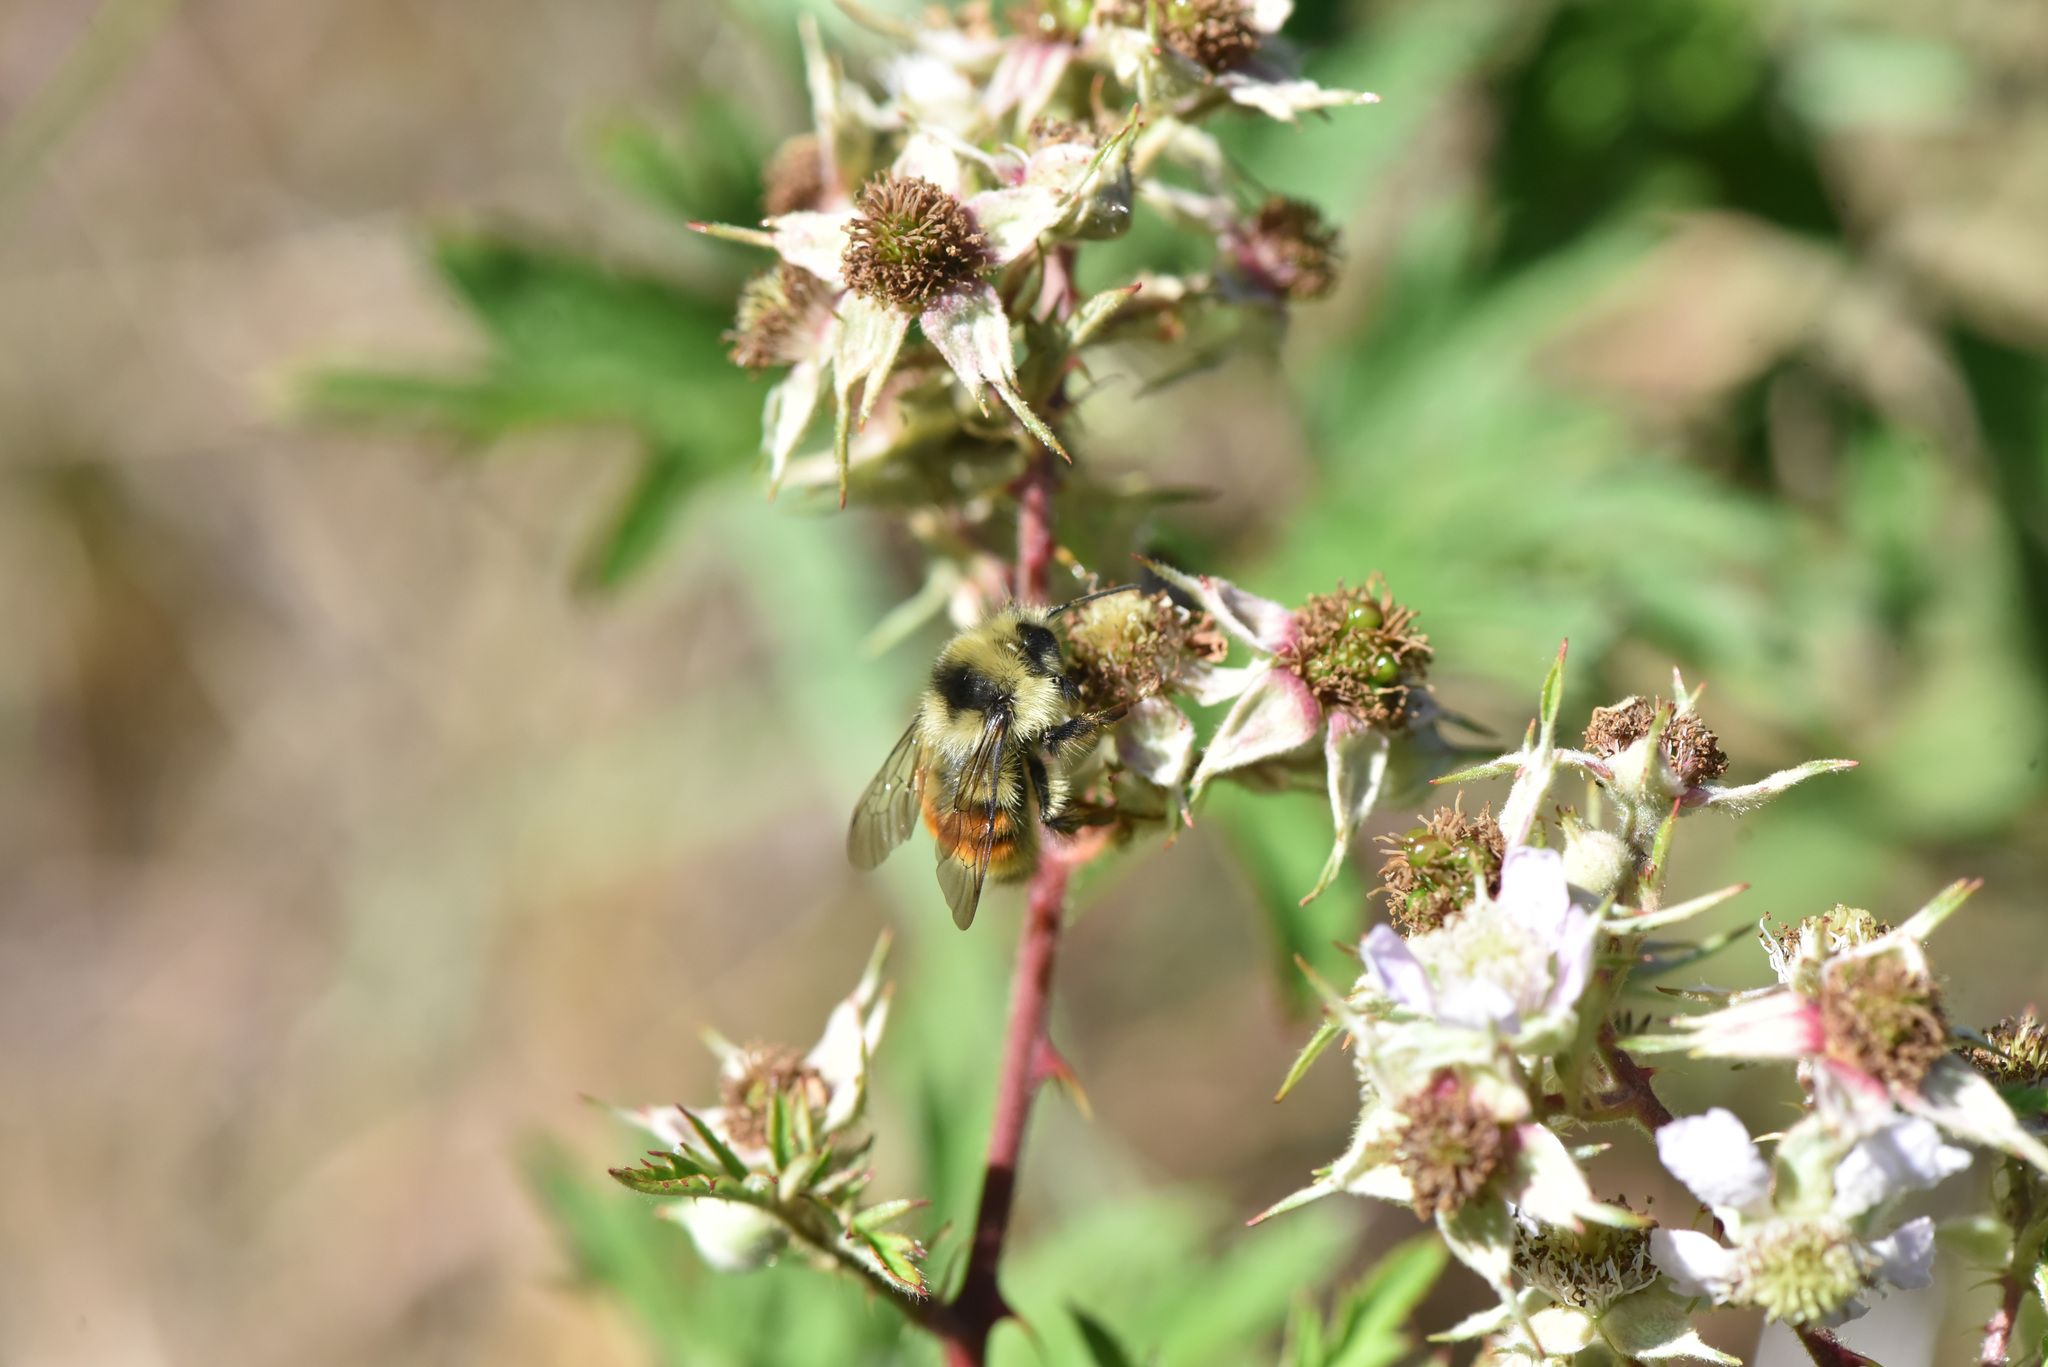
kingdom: Animalia
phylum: Arthropoda
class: Insecta
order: Hymenoptera
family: Apidae
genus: Bombus
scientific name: Bombus vancouverensis
